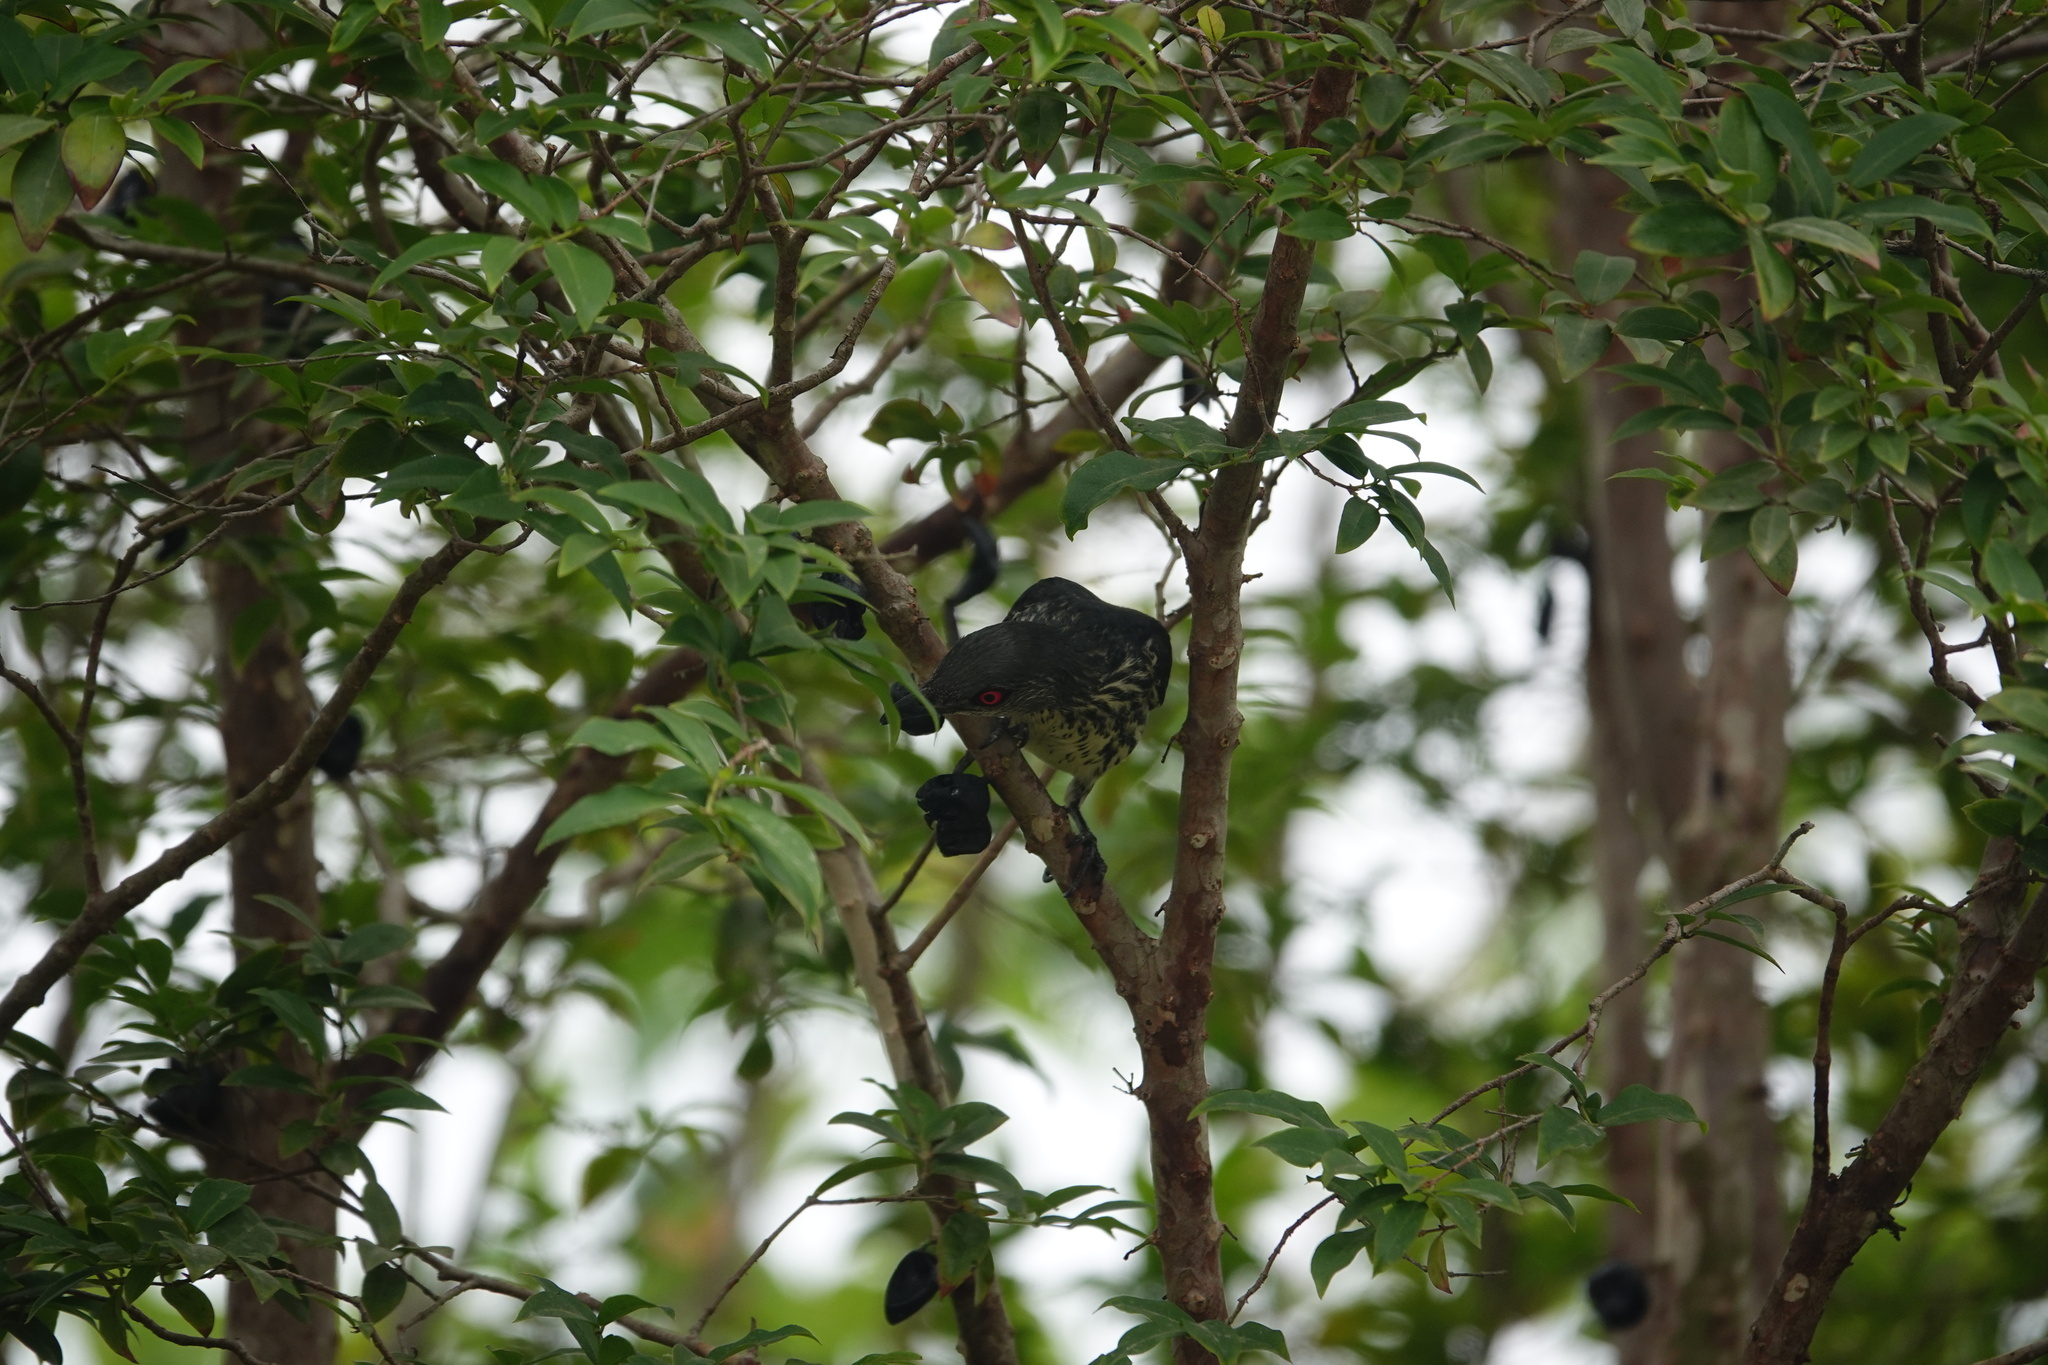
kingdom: Animalia
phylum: Chordata
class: Aves
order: Passeriformes
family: Sturnidae
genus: Aplonis
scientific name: Aplonis panayensis
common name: Asian glossy starling
